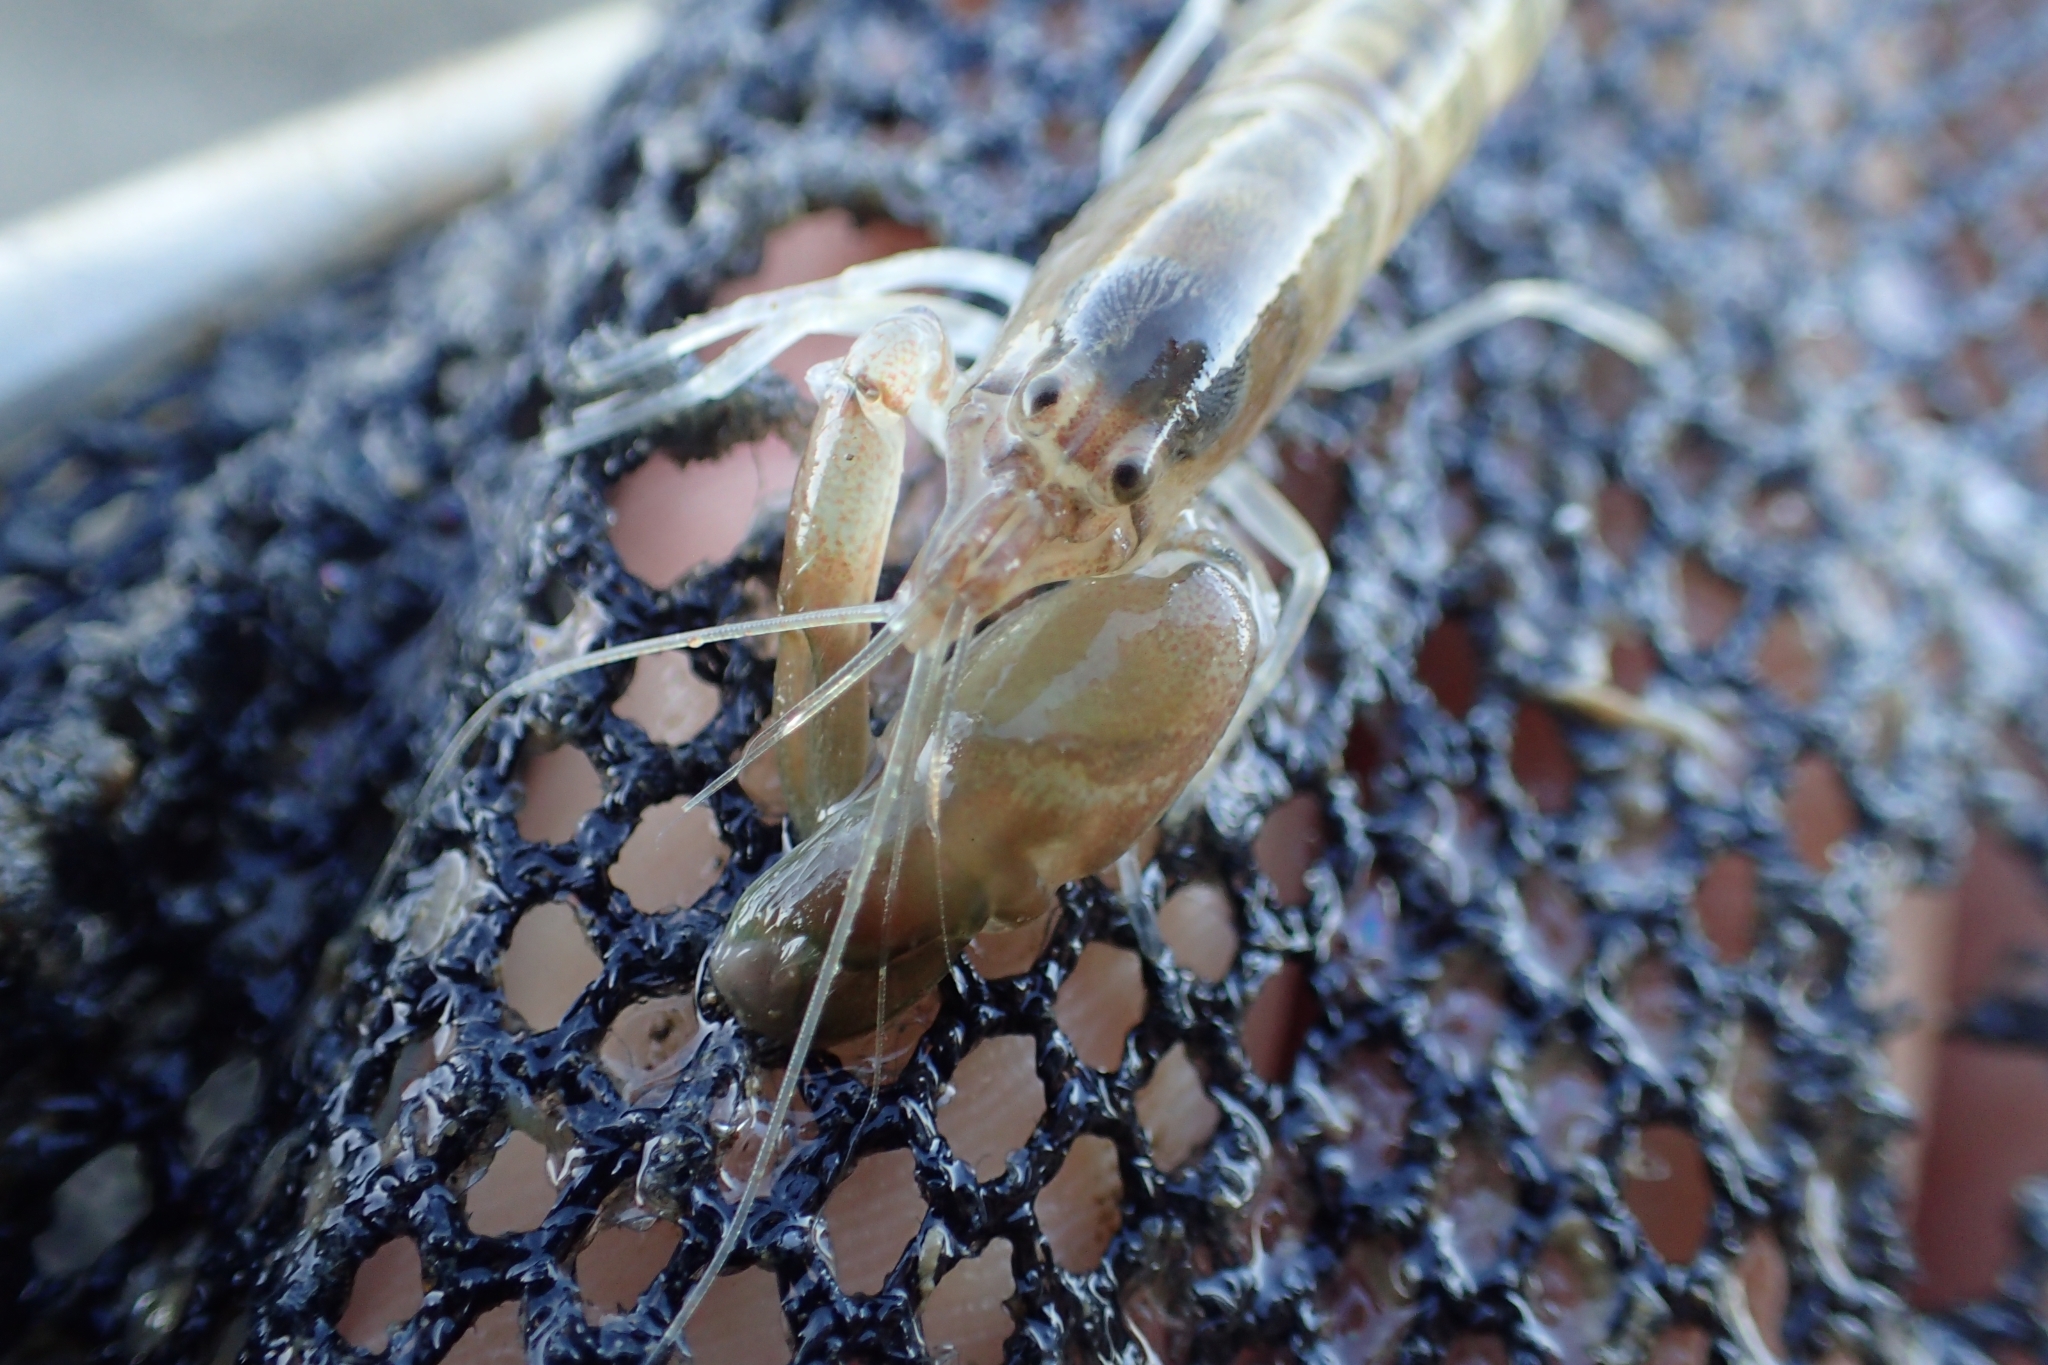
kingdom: Animalia
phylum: Arthropoda
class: Malacostraca
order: Decapoda
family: Alpheidae
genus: Alpheus
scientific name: Alpheus richardsoni
